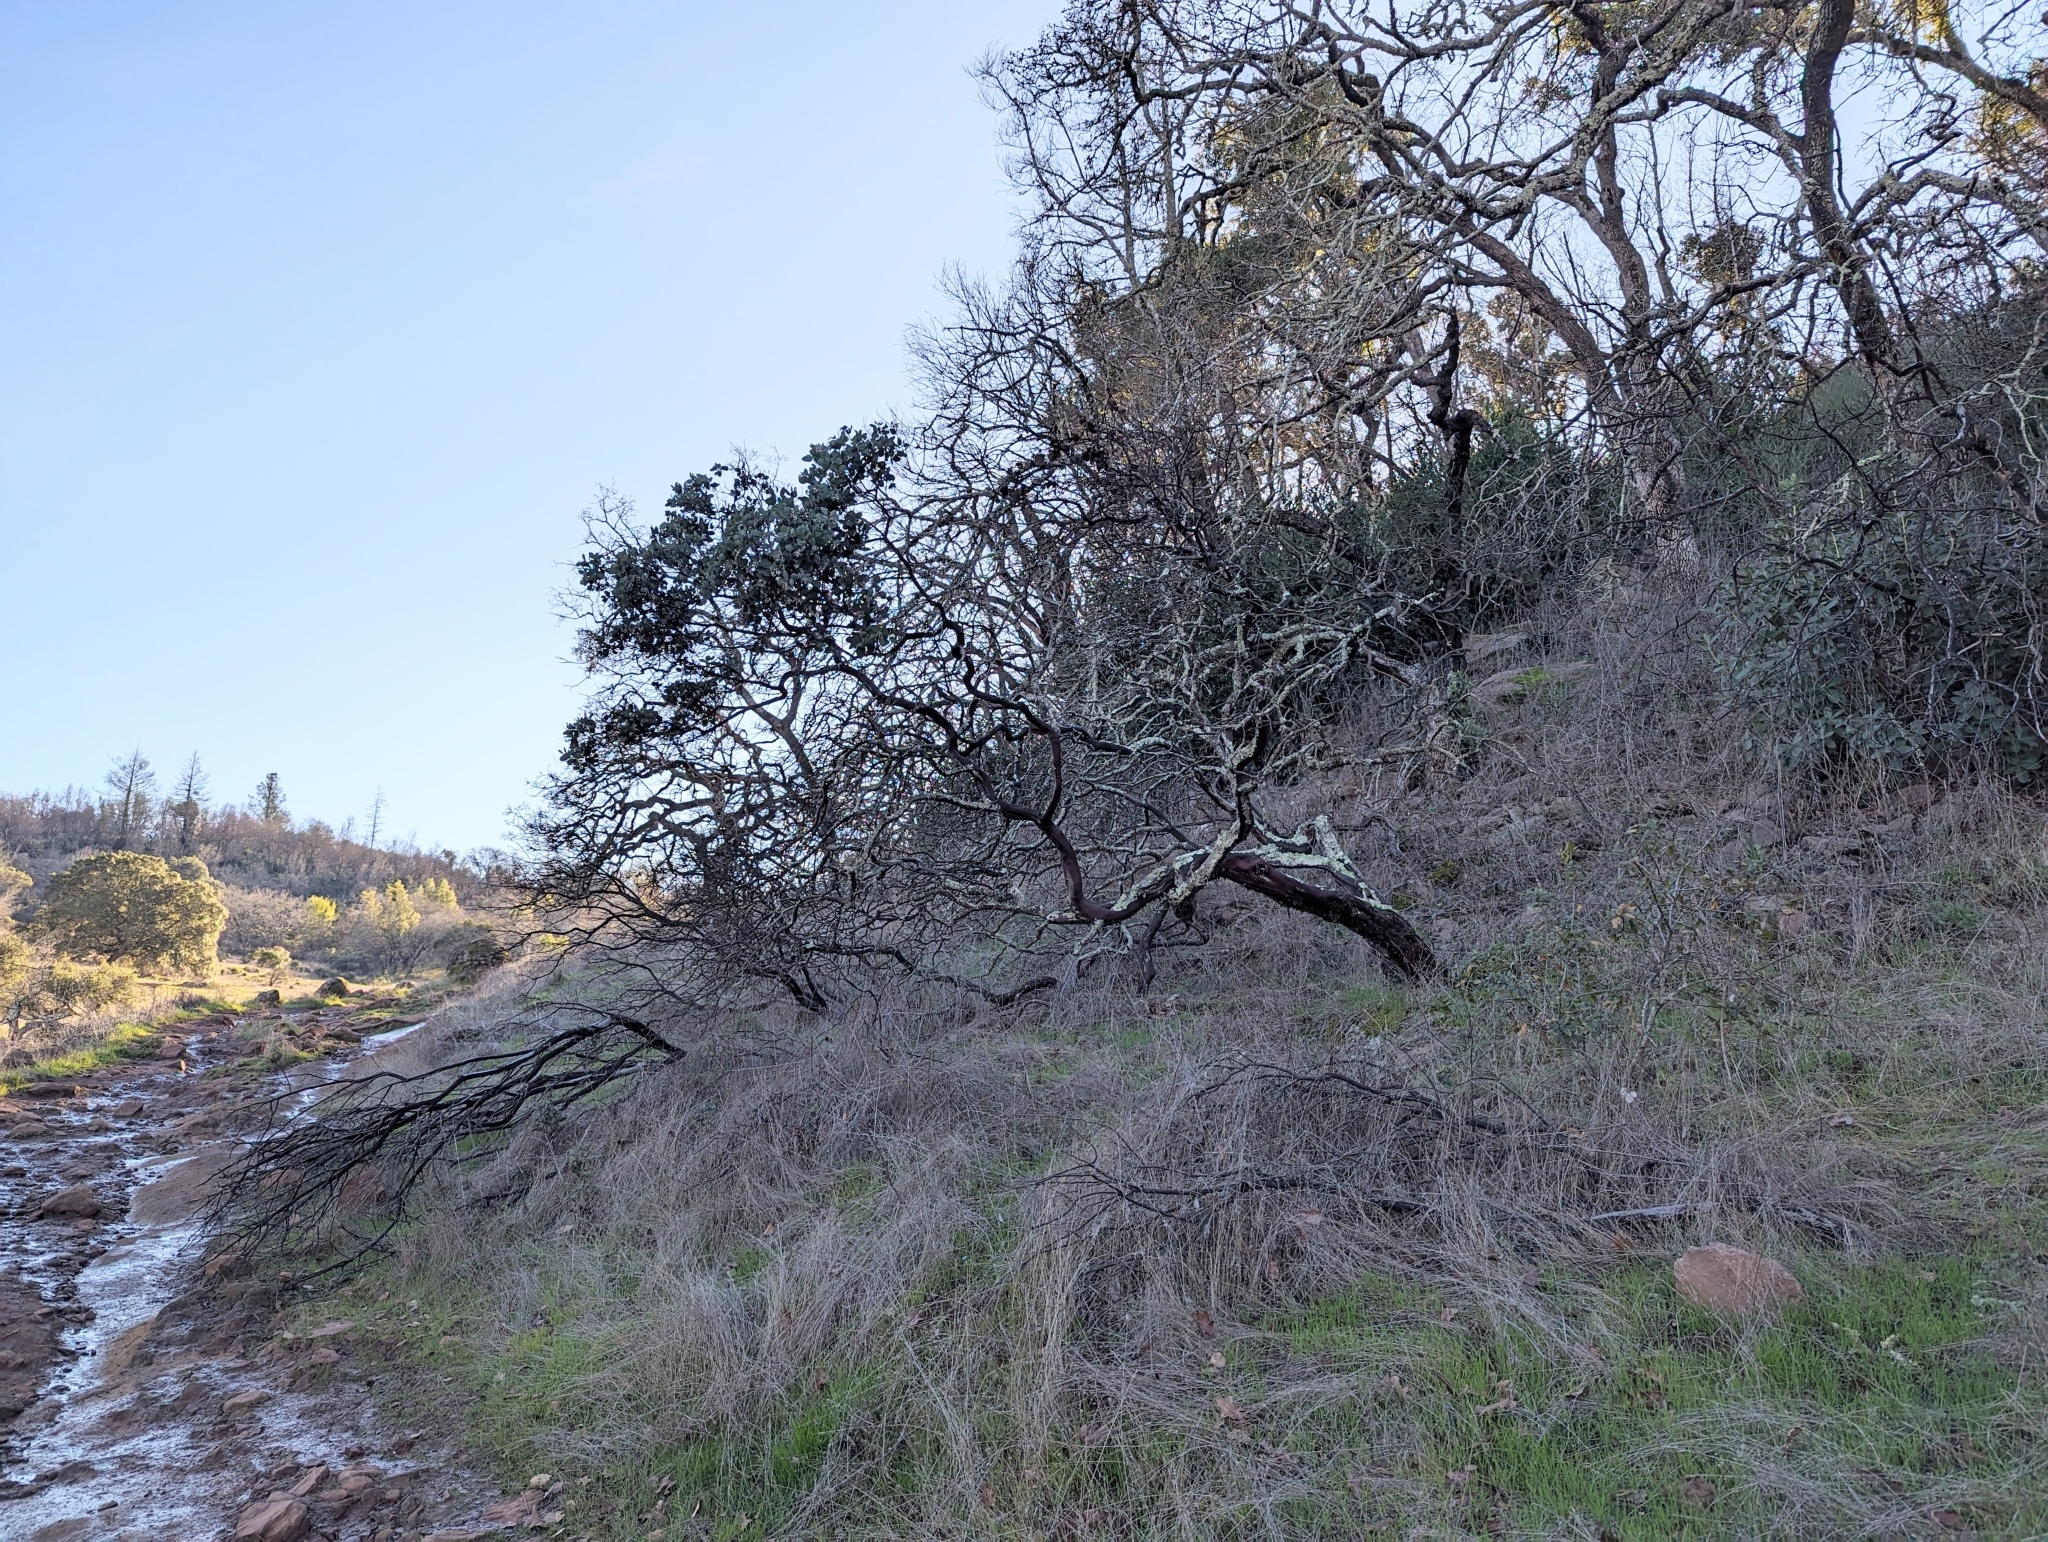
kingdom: Plantae
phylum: Tracheophyta
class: Magnoliopsida
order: Ericales
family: Ericaceae
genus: Arctostaphylos
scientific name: Arctostaphylos manzanita
